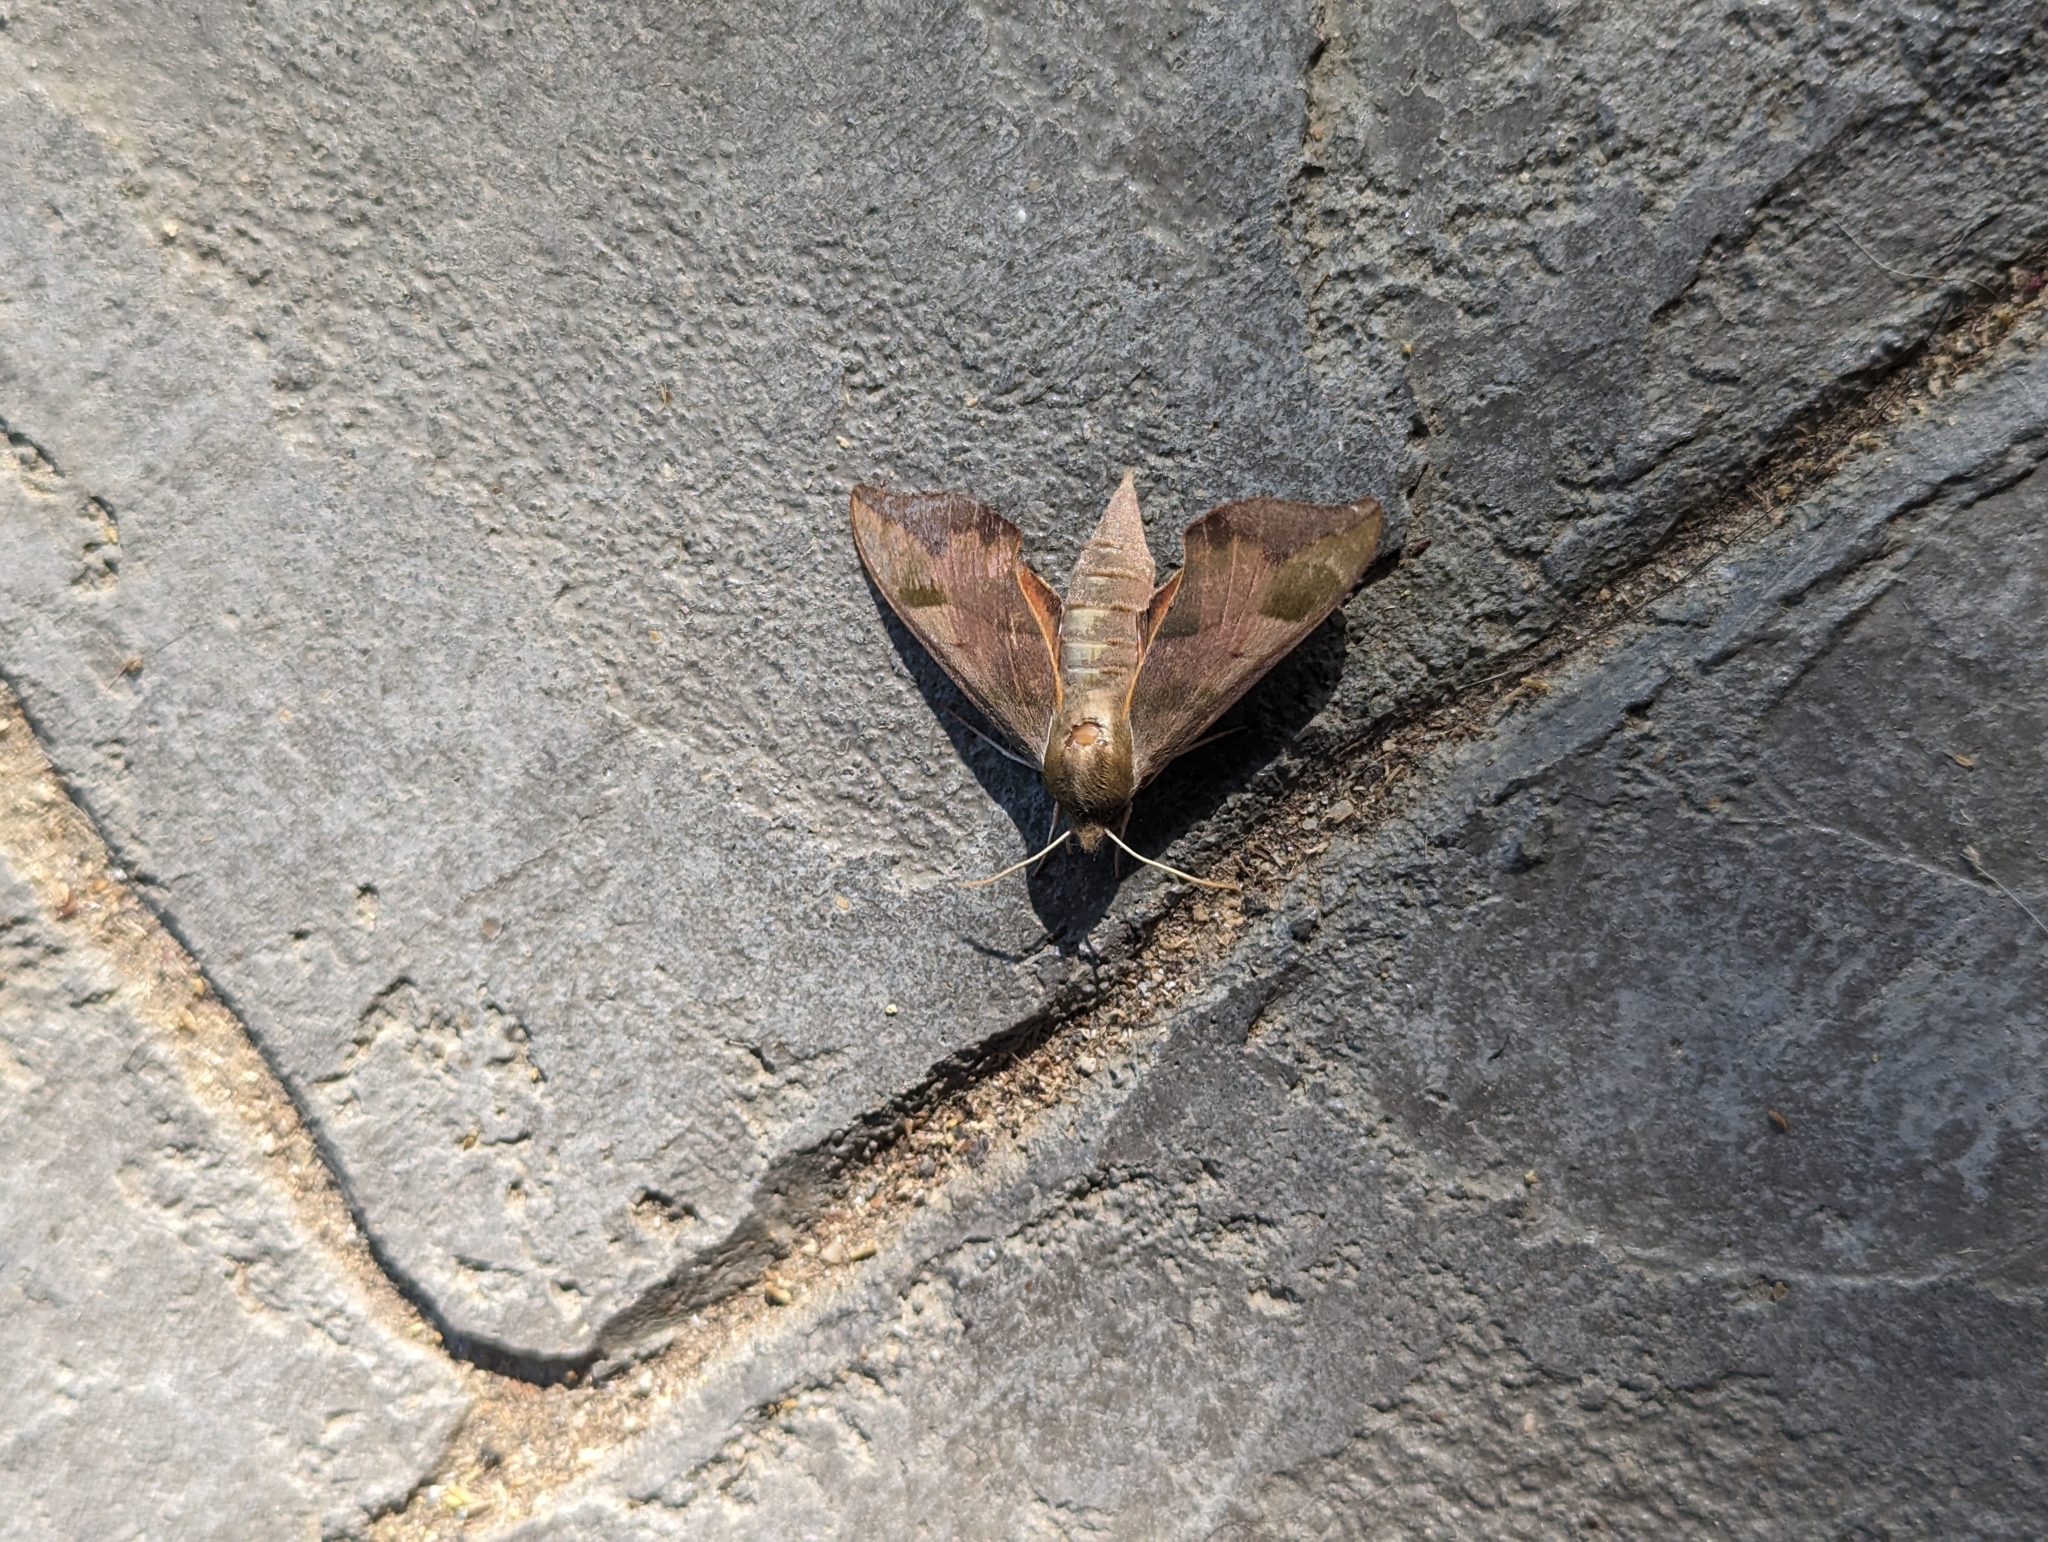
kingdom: Animalia
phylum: Arthropoda
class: Insecta
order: Lepidoptera
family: Sphingidae
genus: Darapsa
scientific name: Darapsa myron
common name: Hog sphinx
